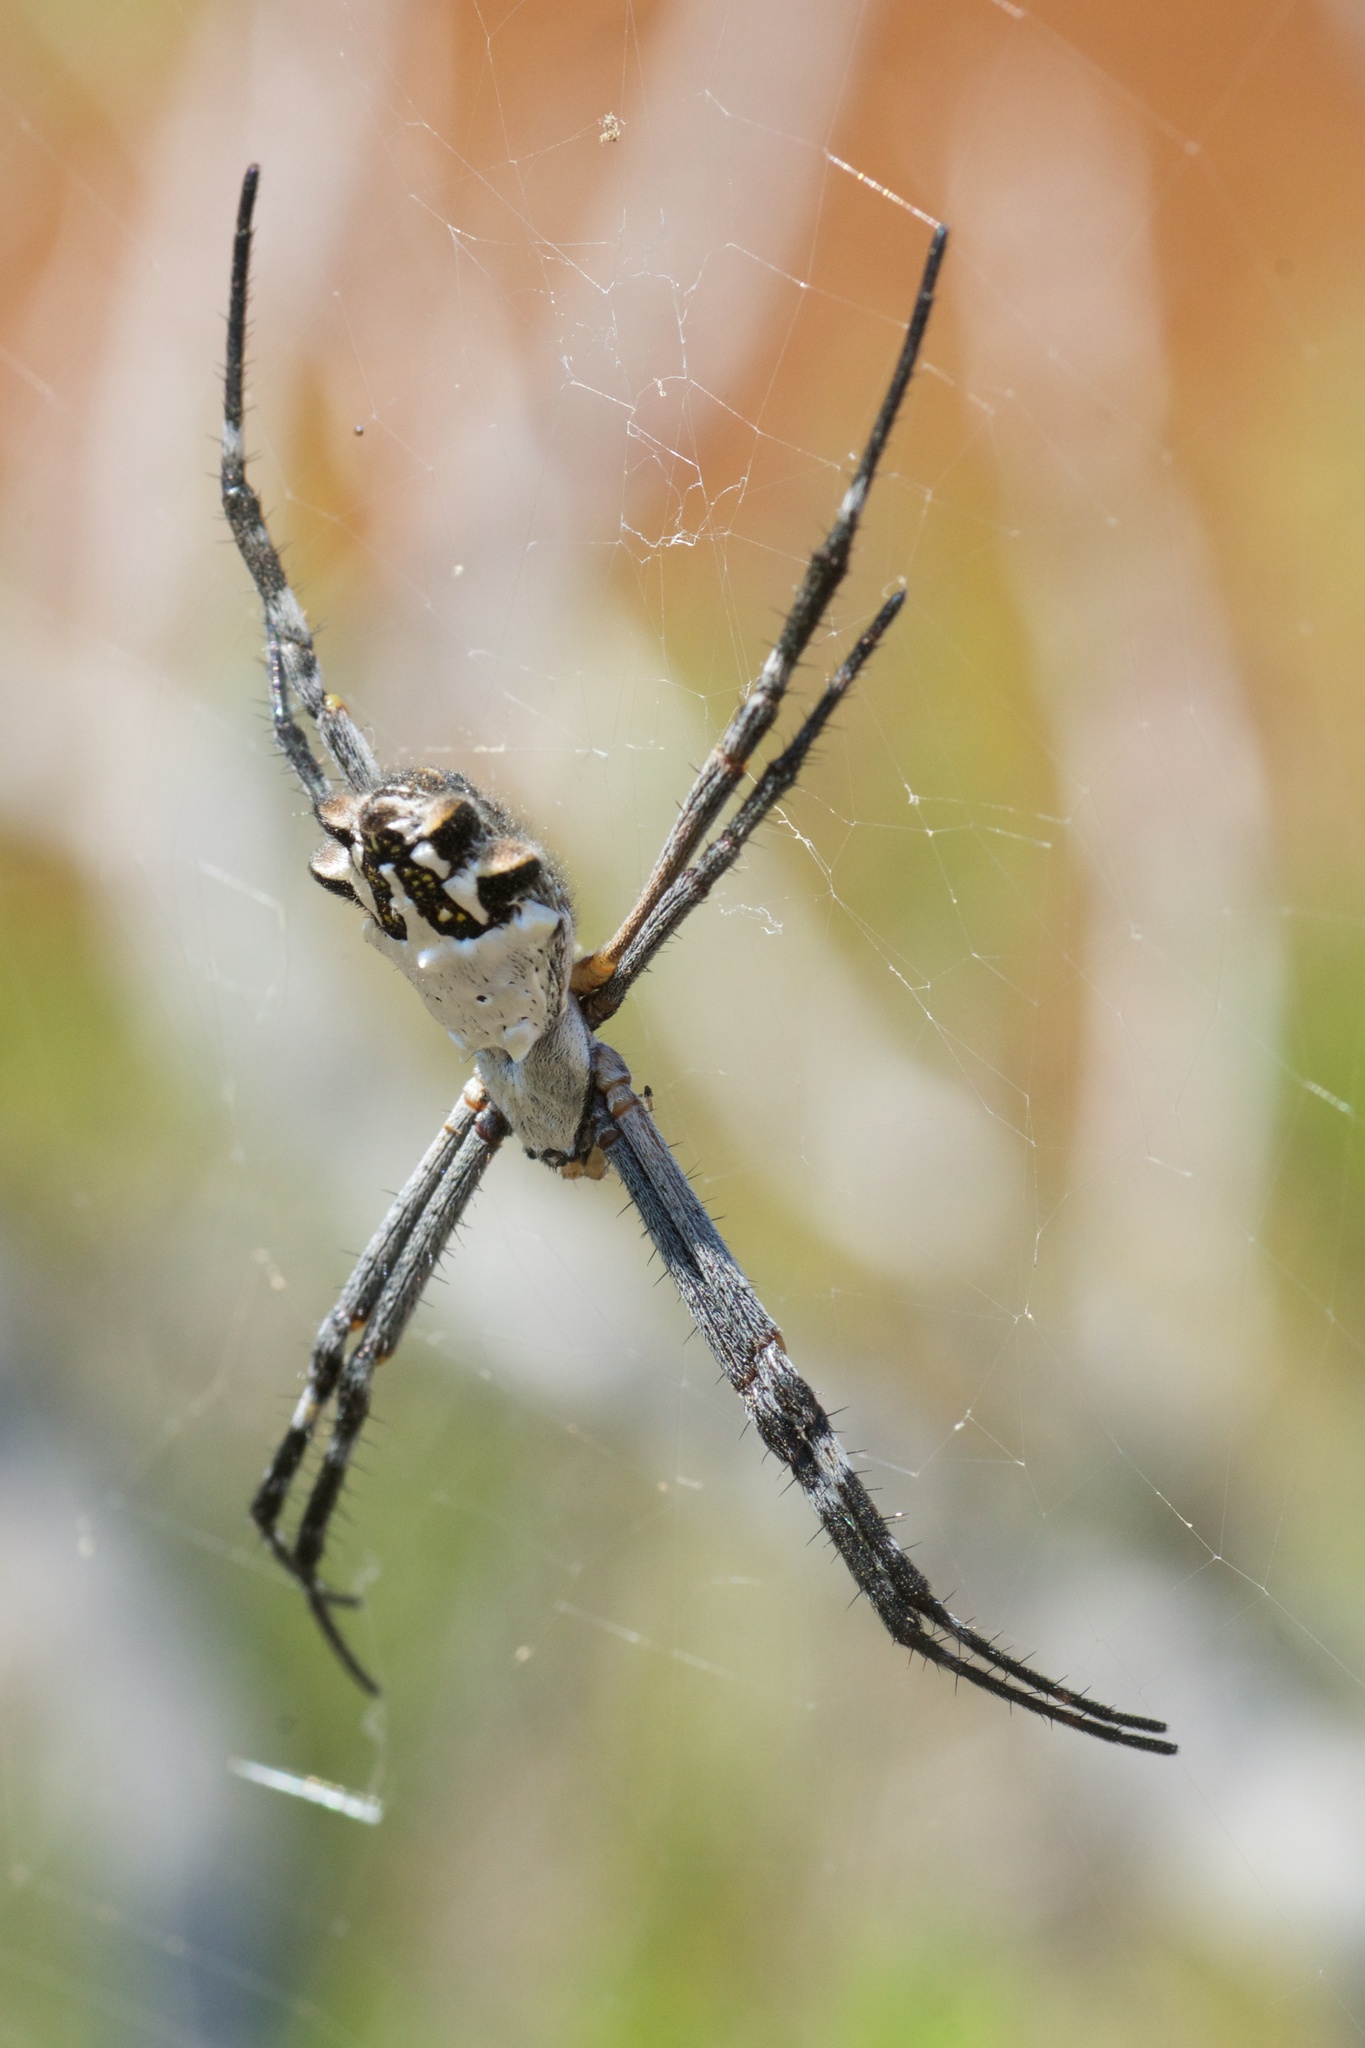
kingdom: Animalia
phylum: Arthropoda
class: Arachnida
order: Araneae
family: Araneidae
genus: Argiope
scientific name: Argiope argentata
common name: Orb weavers
